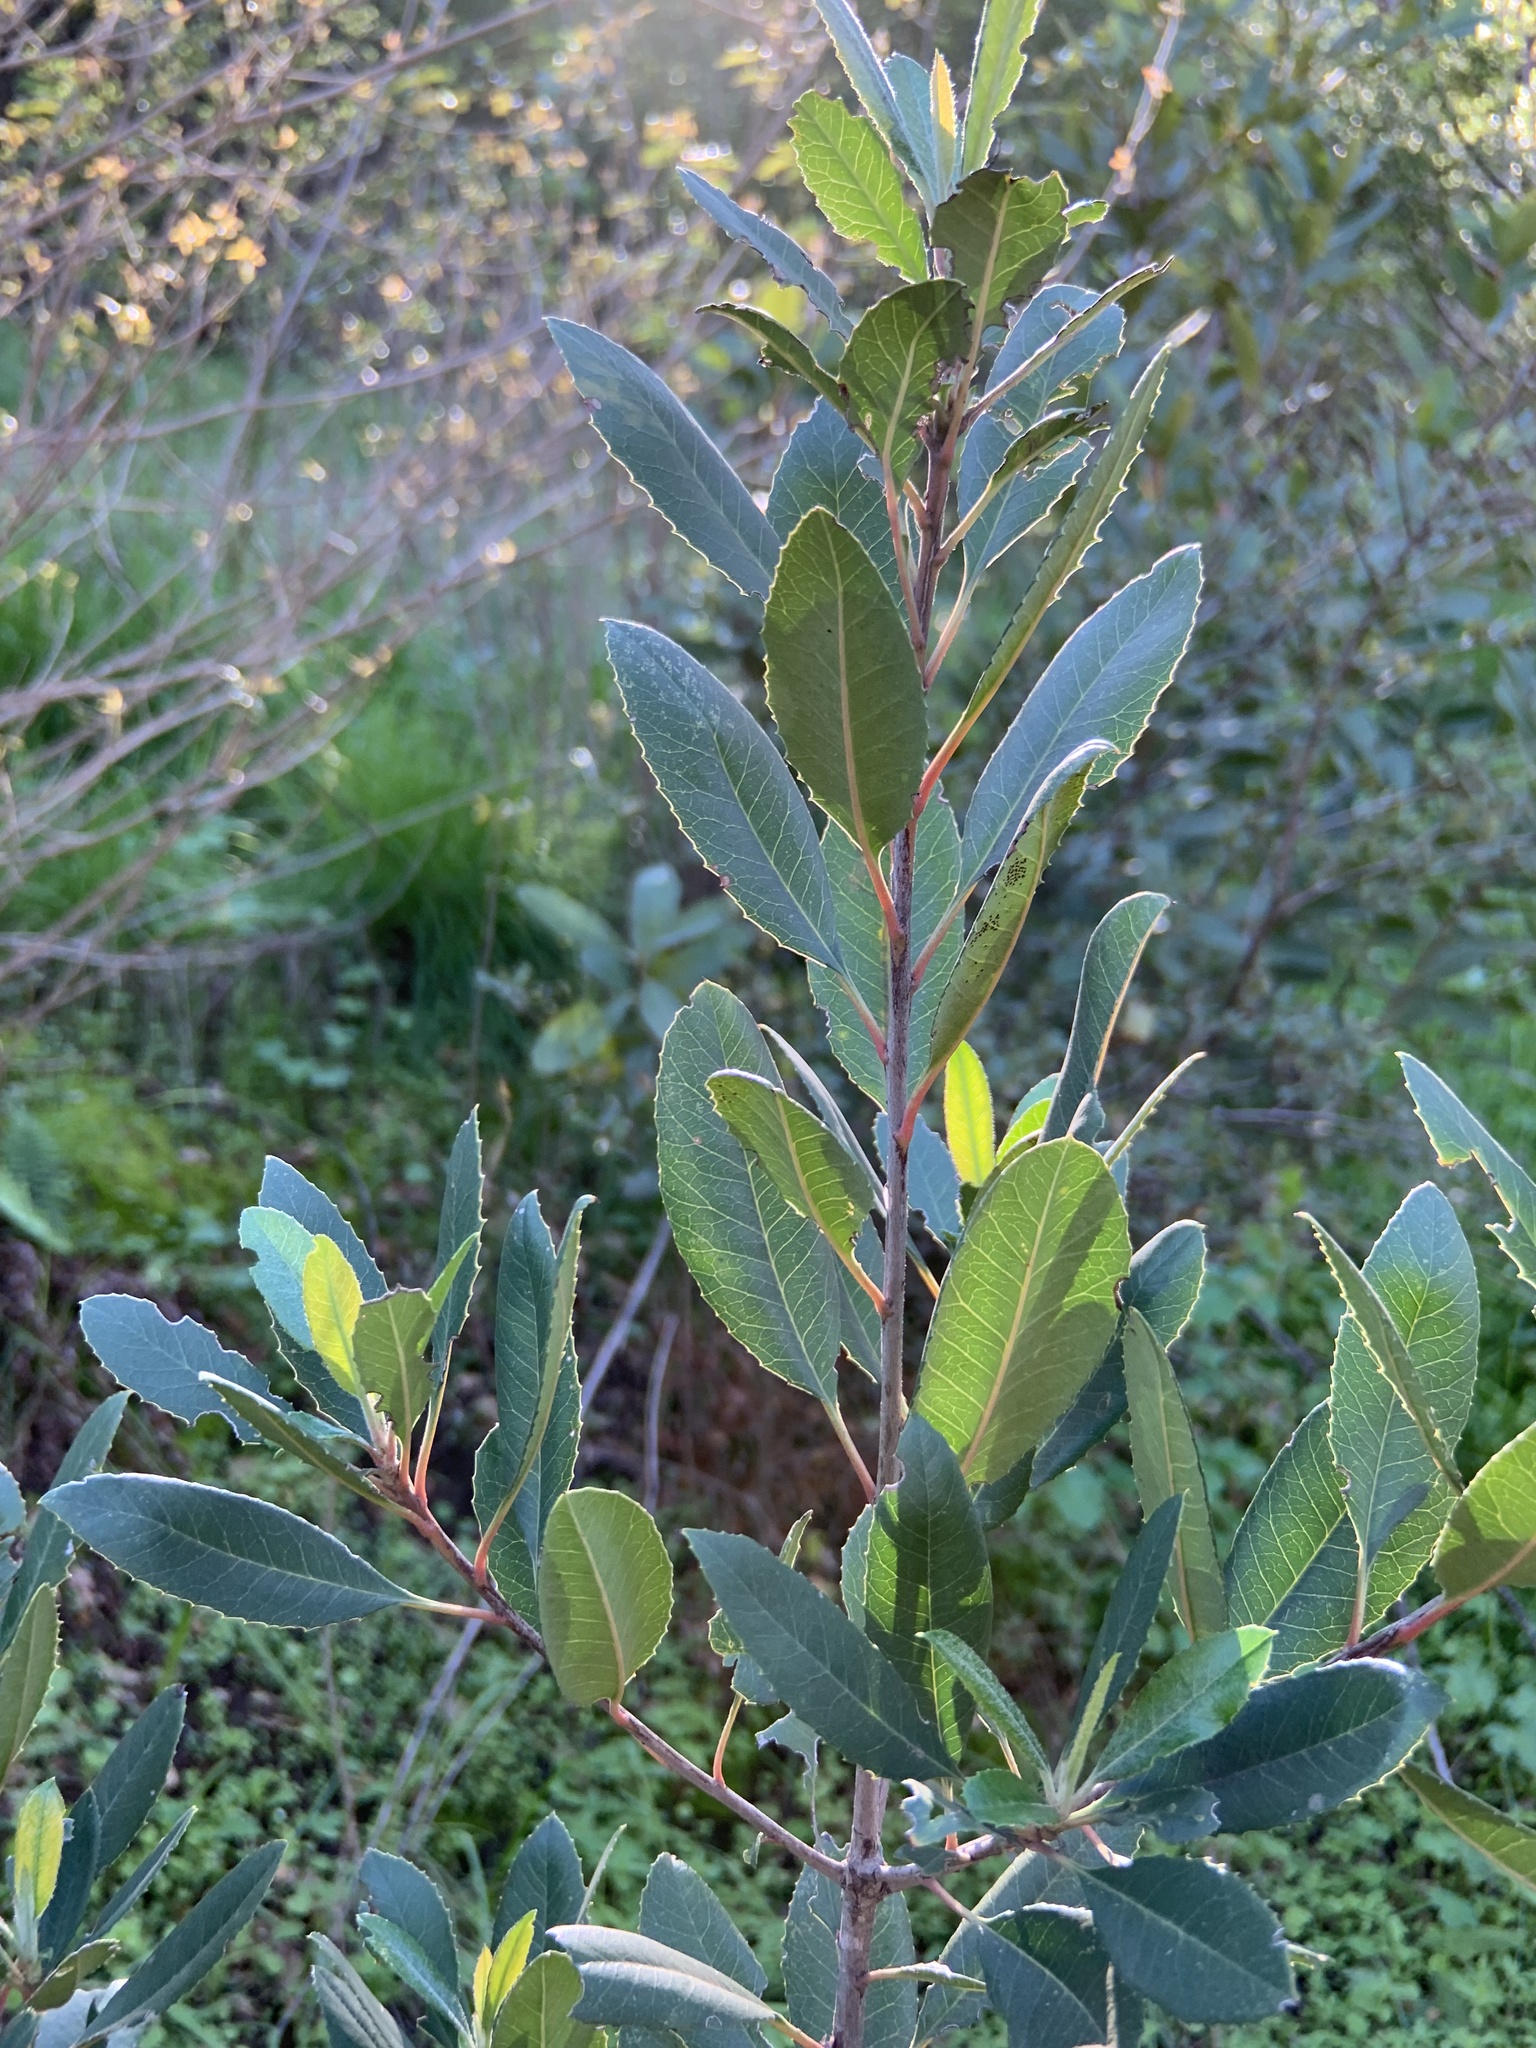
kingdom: Plantae
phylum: Tracheophyta
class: Magnoliopsida
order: Rosales
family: Rosaceae
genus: Heteromeles
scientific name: Heteromeles arbutifolia
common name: California-holly
